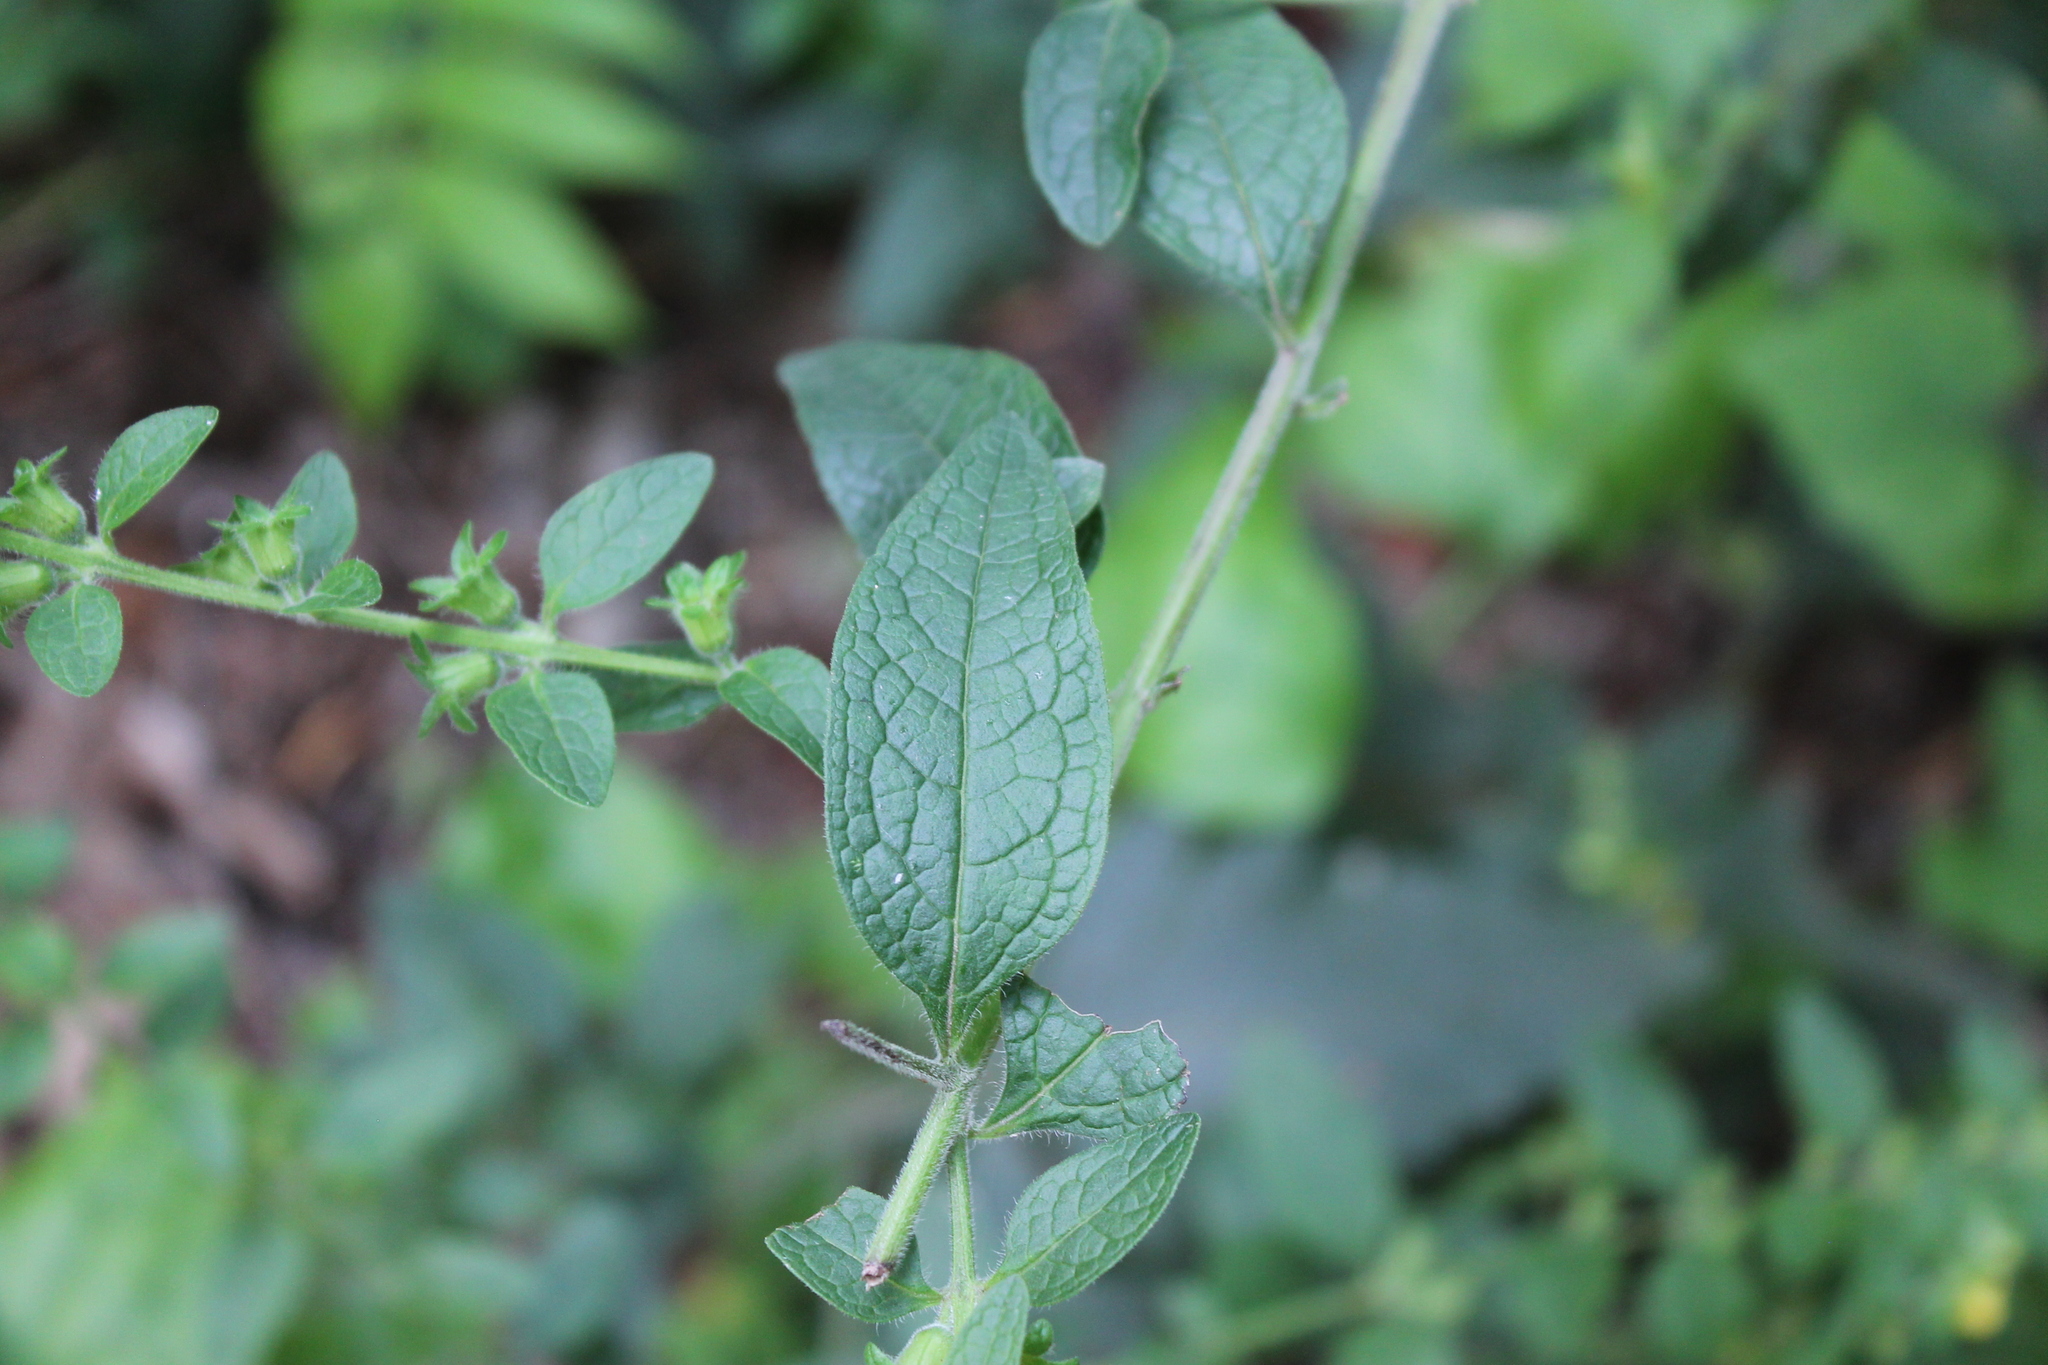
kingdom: Plantae
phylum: Tracheophyta
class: Magnoliopsida
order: Lamiales
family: Orobanchaceae
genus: Dasistoma
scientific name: Dasistoma macrophyllum
